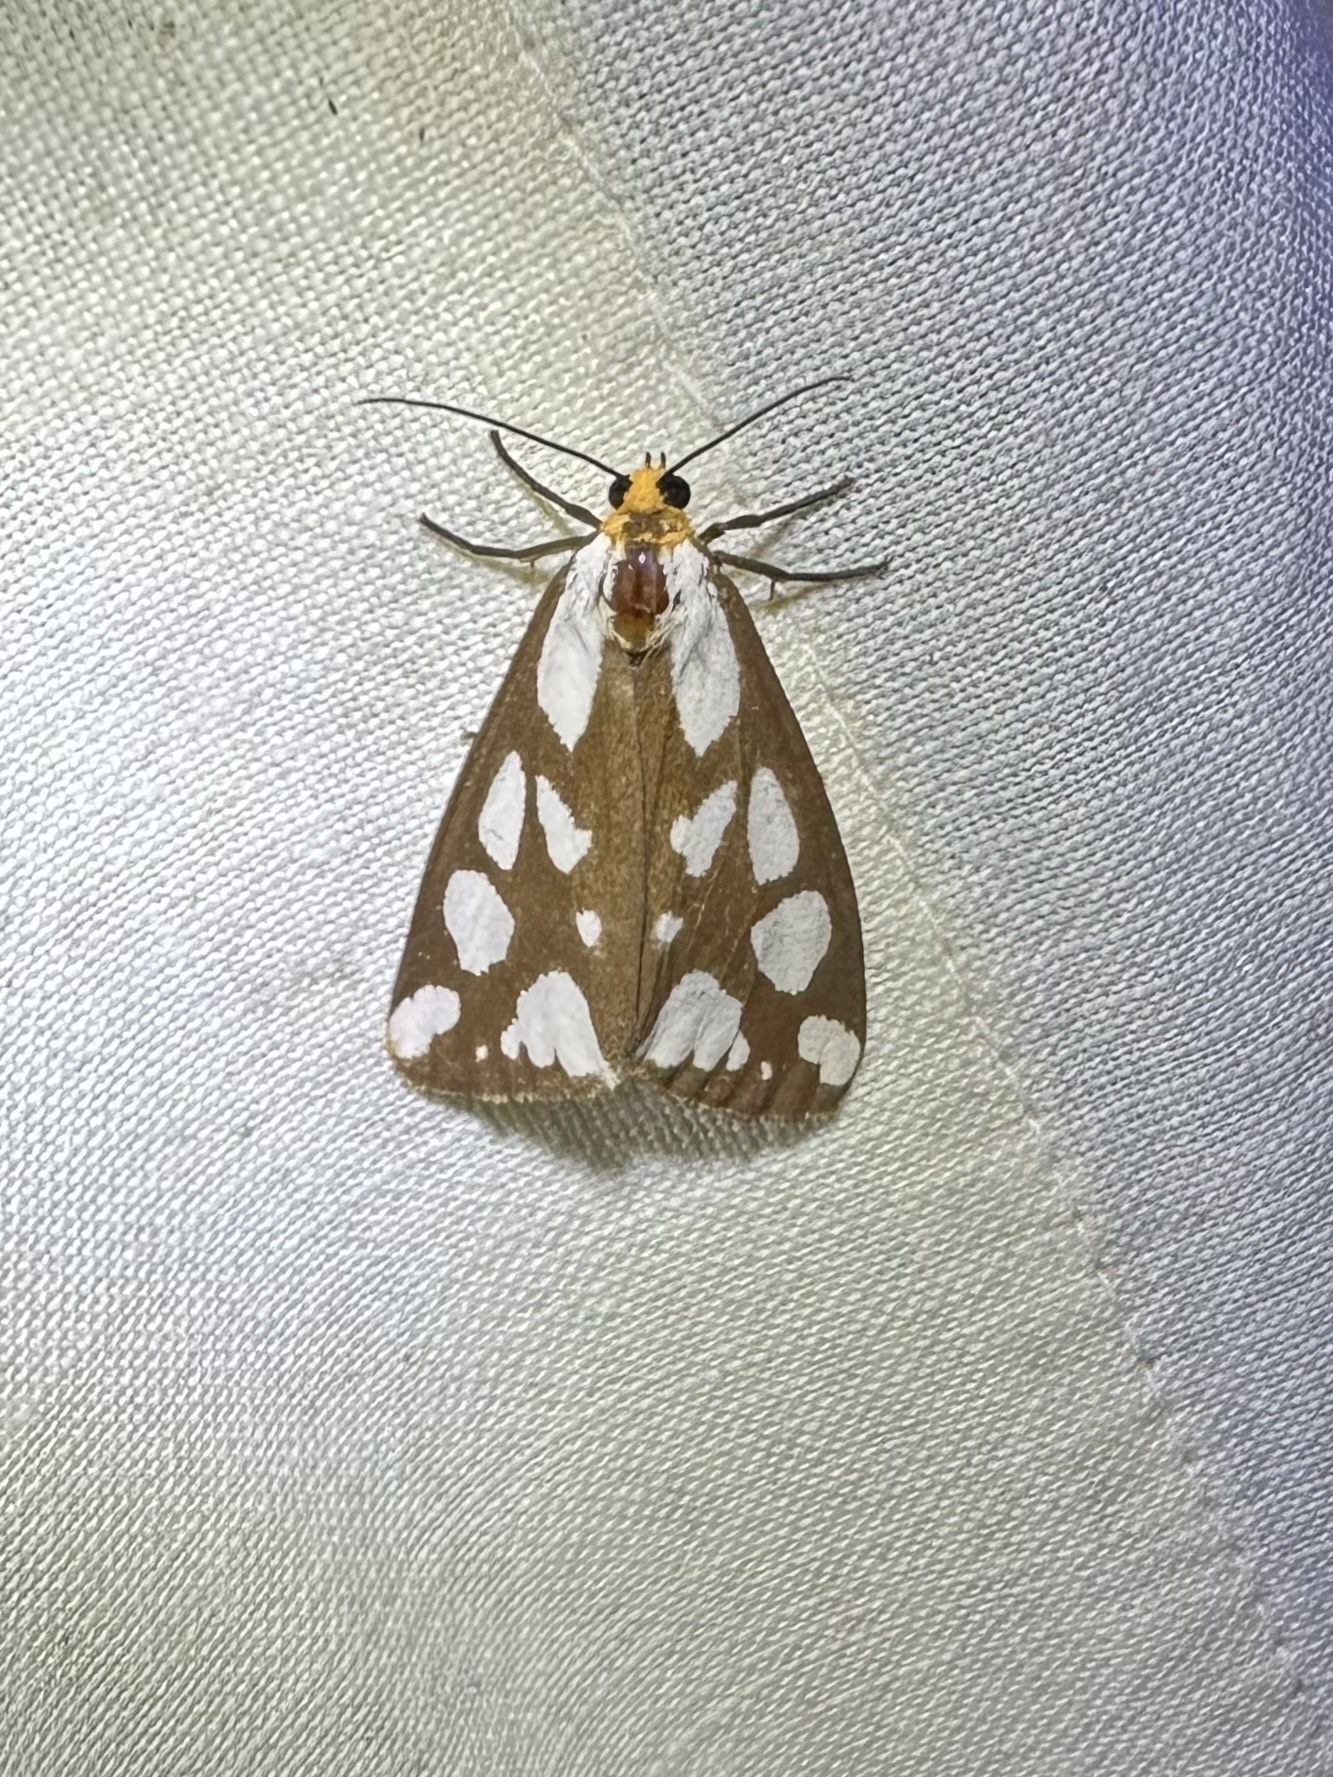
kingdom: Animalia
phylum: Arthropoda
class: Insecta
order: Lepidoptera
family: Erebidae
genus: Haploa
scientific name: Haploa confusa
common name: Confused haploa moth
